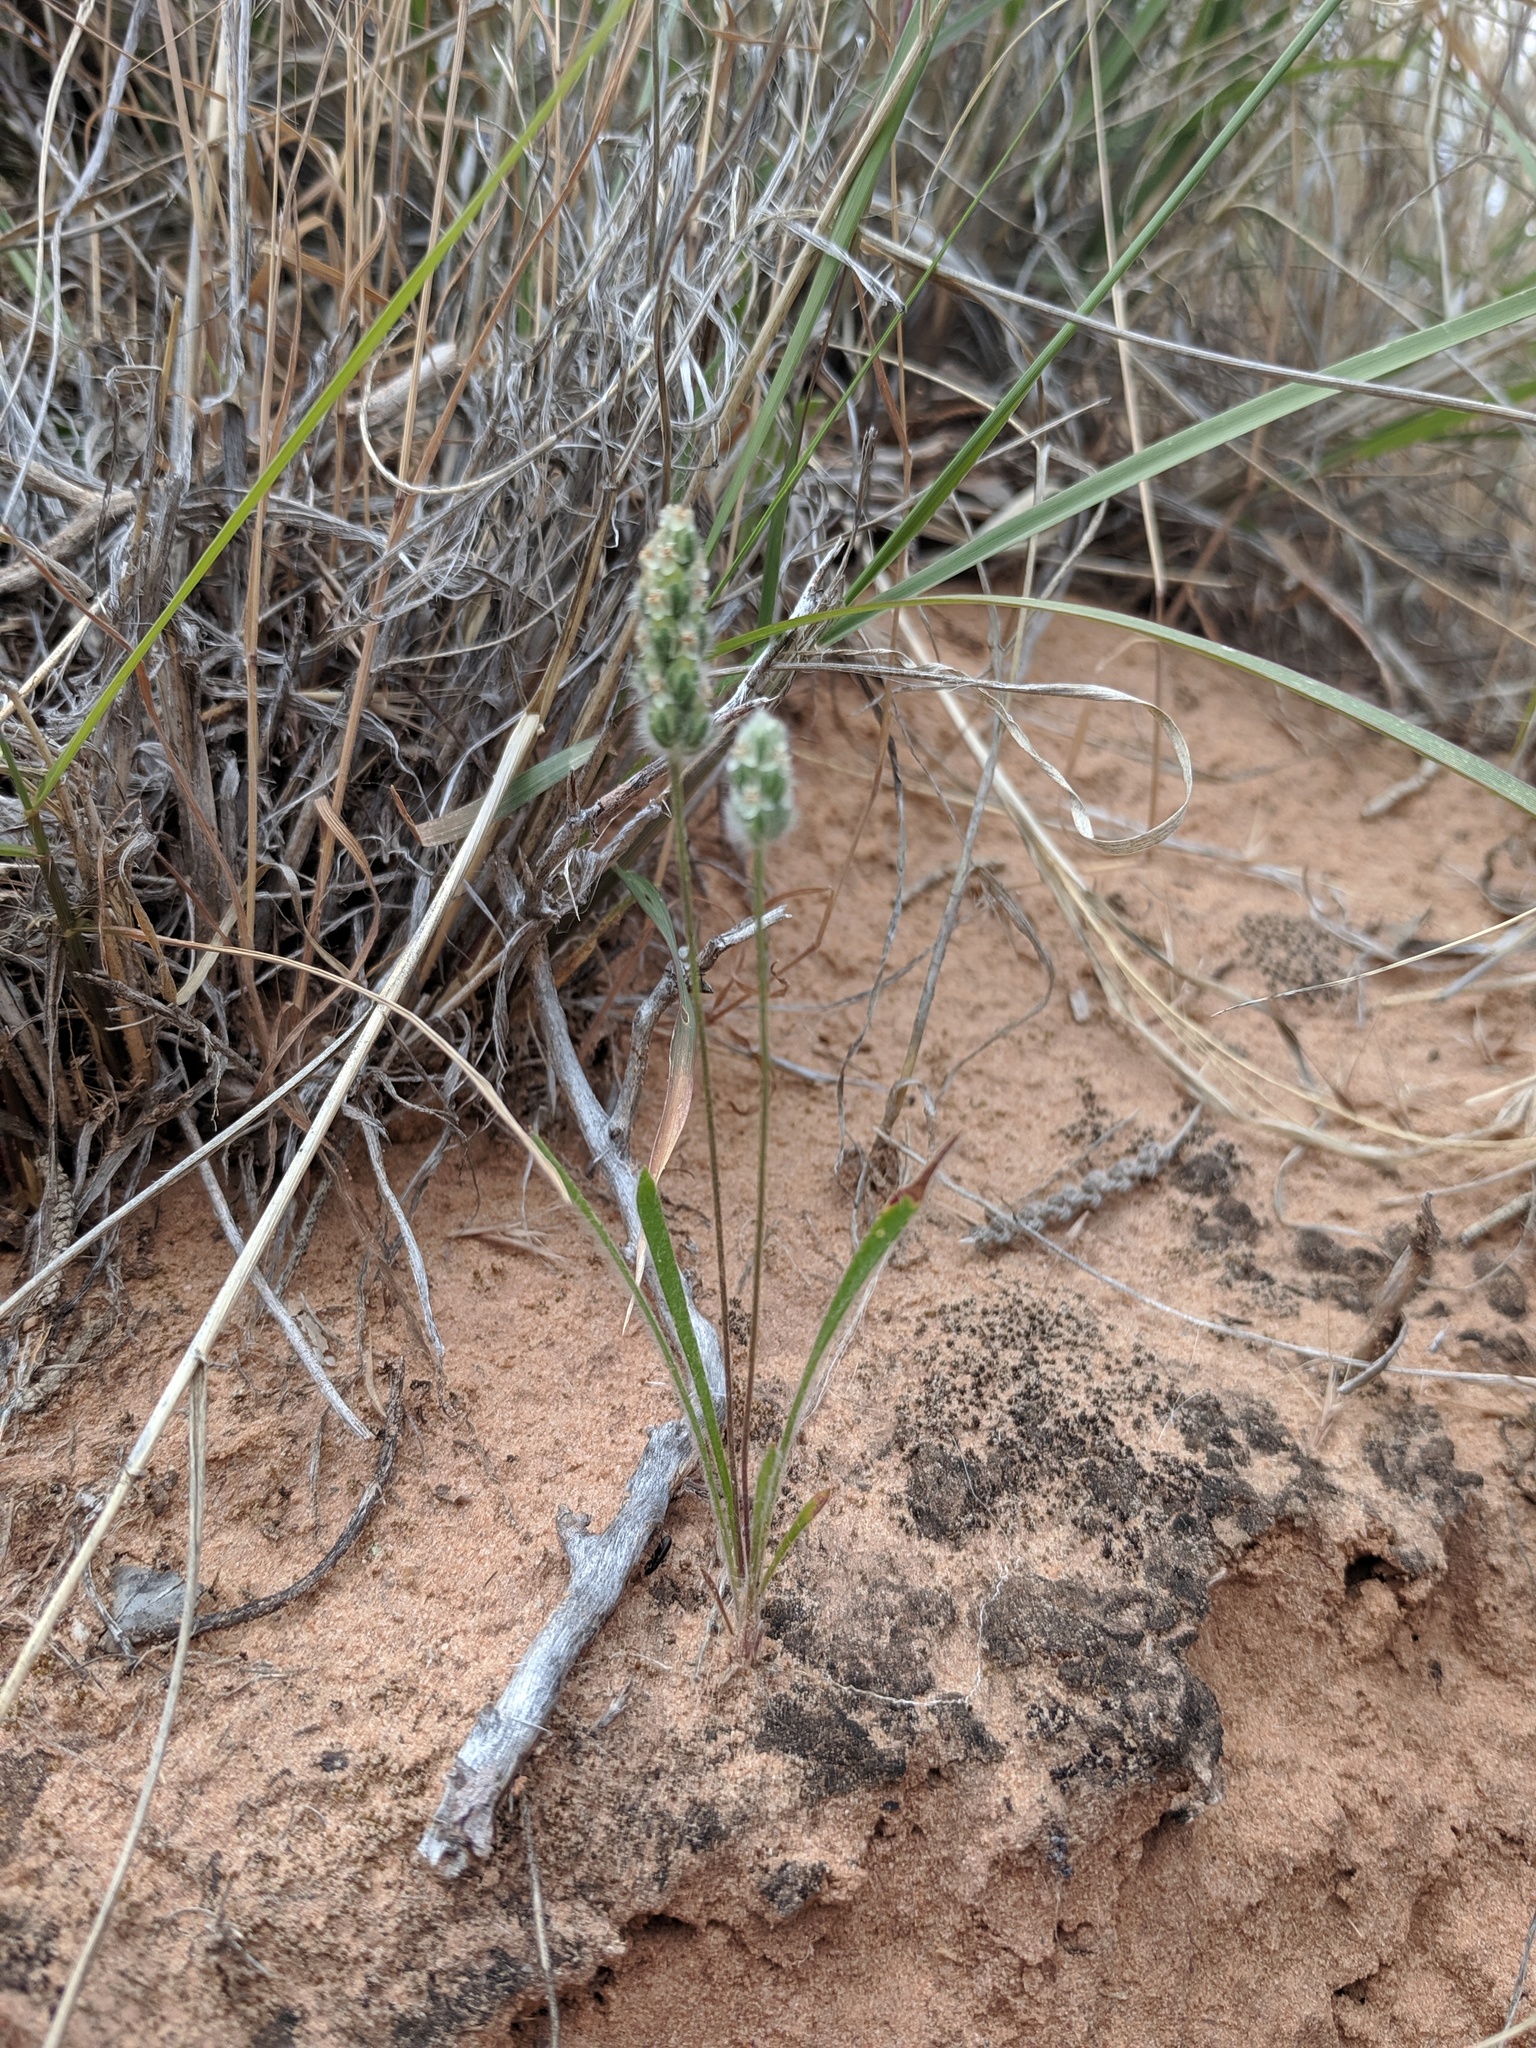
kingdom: Plantae
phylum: Tracheophyta
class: Magnoliopsida
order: Lamiales
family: Plantaginaceae
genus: Plantago
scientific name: Plantago patagonica
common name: Patagonia indian-wheat
